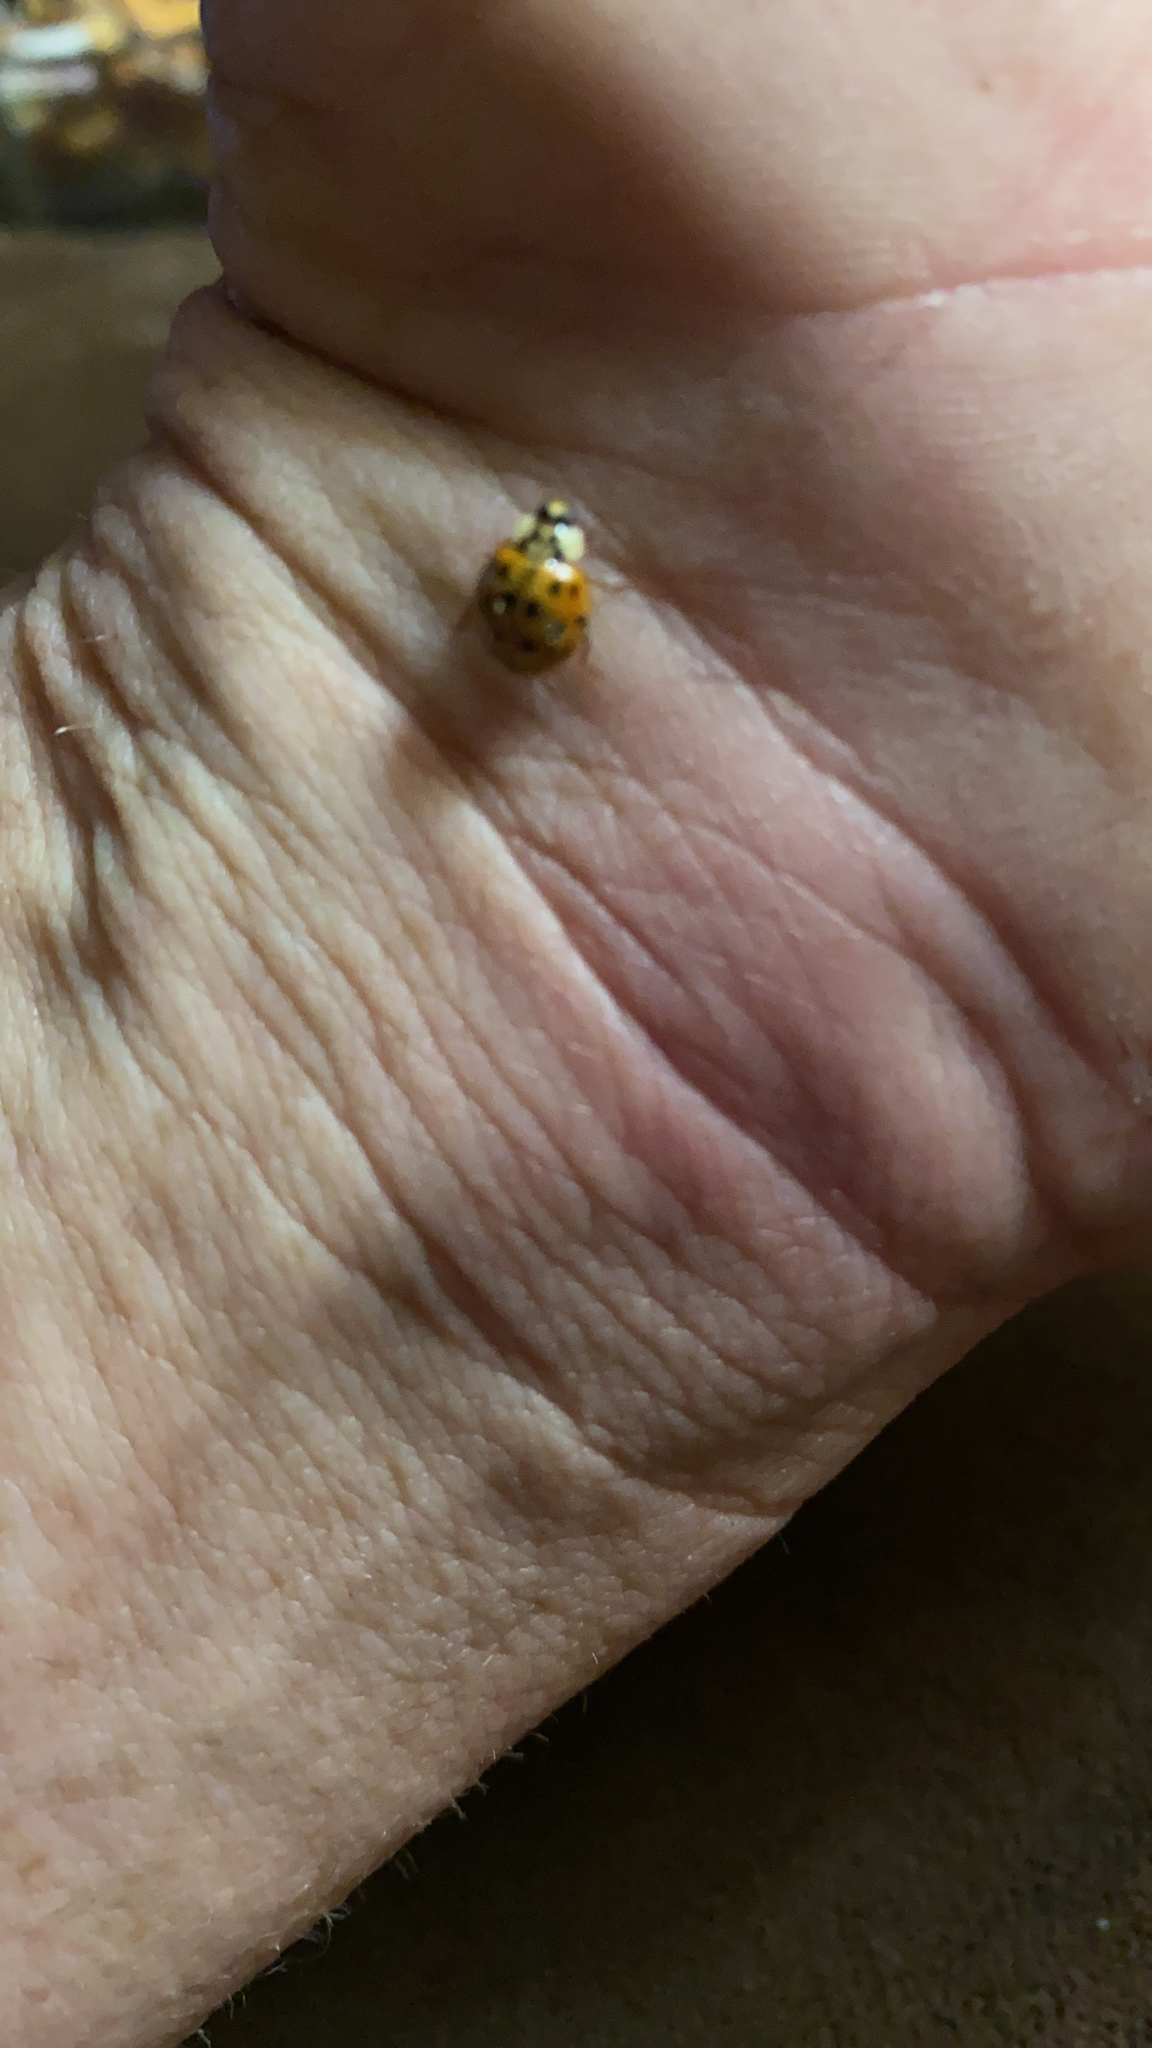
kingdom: Animalia
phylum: Arthropoda
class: Insecta
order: Coleoptera
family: Coccinellidae
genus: Harmonia
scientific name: Harmonia axyridis
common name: Harlequin ladybird
